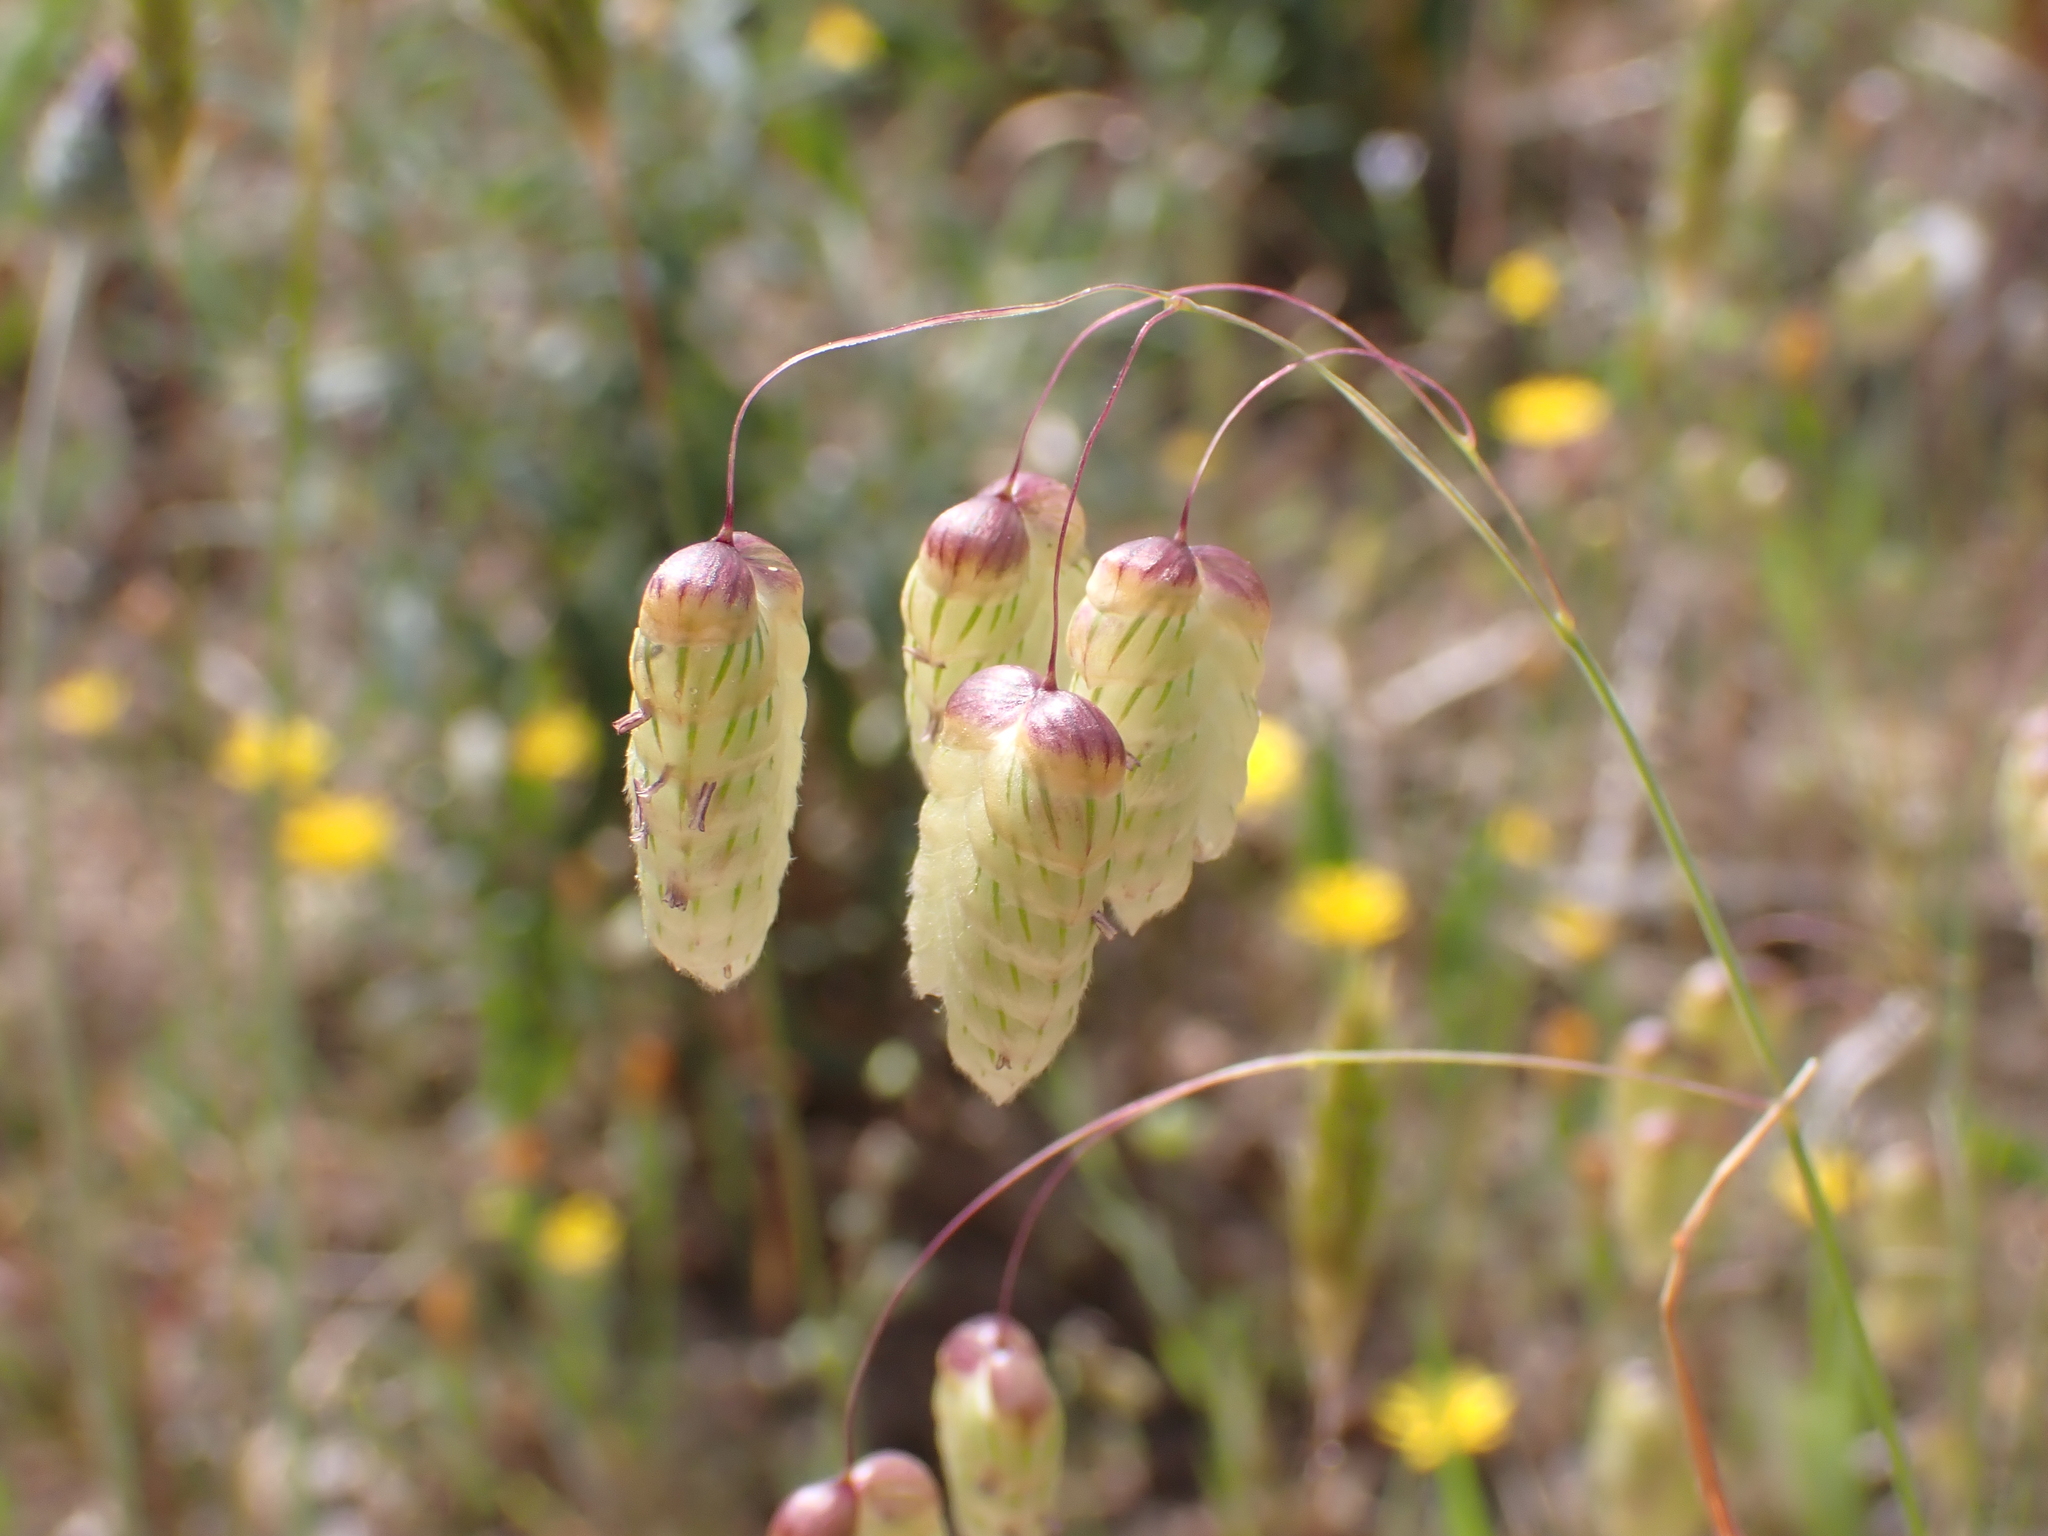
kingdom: Plantae
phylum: Tracheophyta
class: Liliopsida
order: Poales
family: Poaceae
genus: Briza
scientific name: Briza maxima
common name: Big quakinggrass
